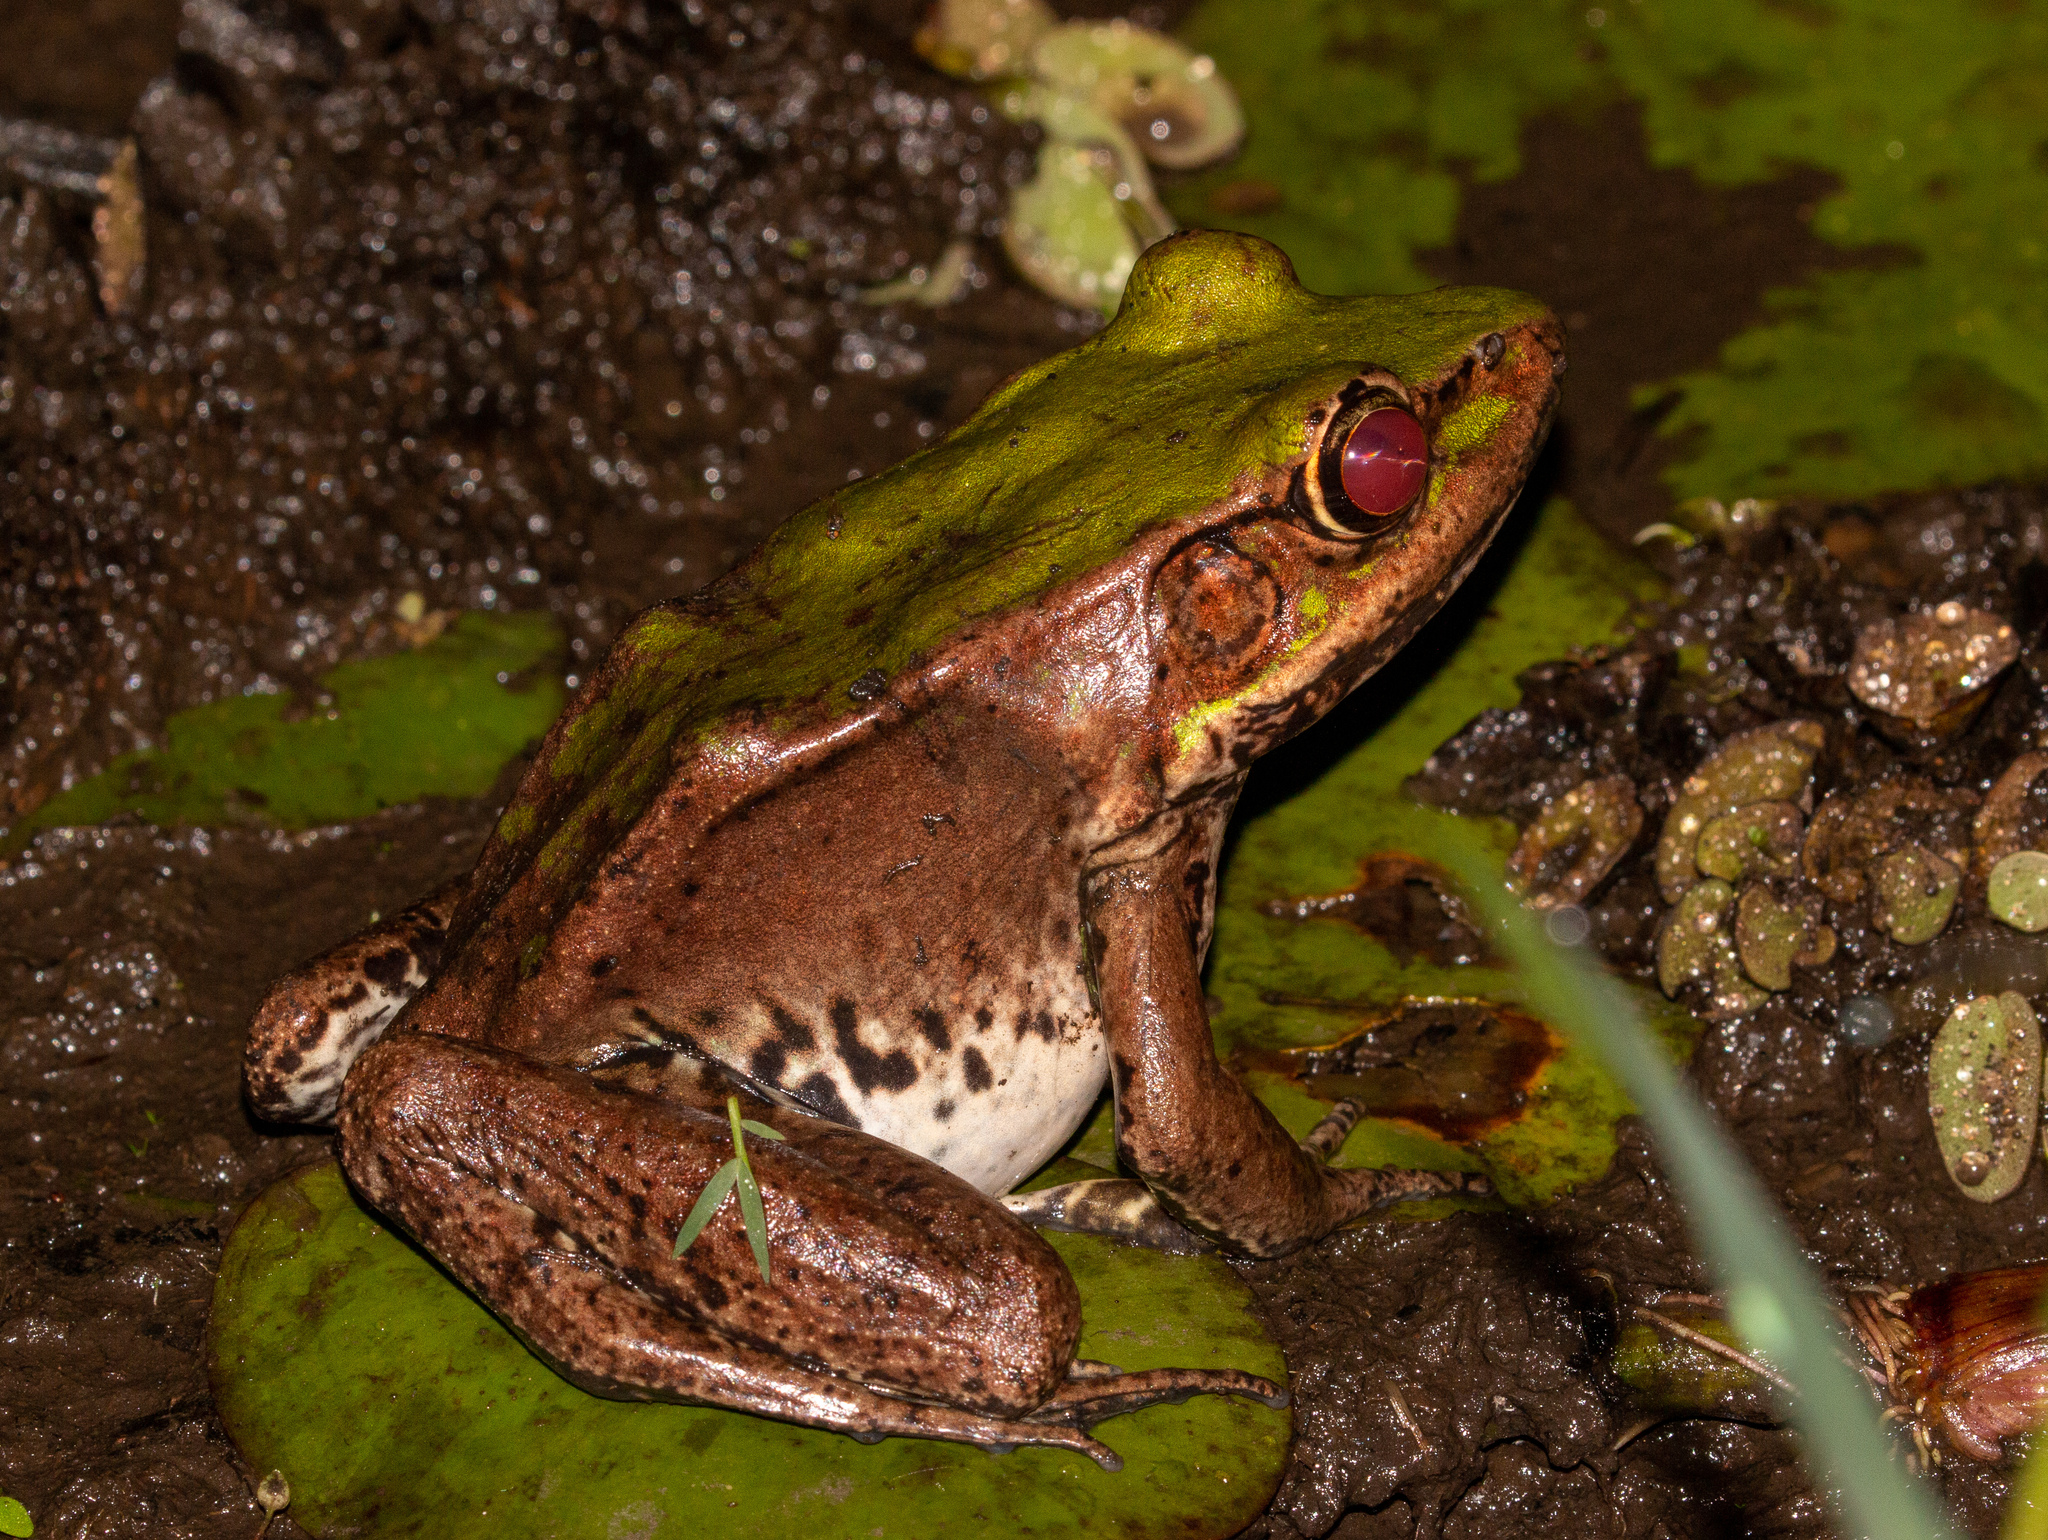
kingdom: Animalia
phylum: Chordata
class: Amphibia
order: Anura
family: Ranidae
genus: Lithobates
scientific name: Lithobates palmipes
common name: Amazon river frog
